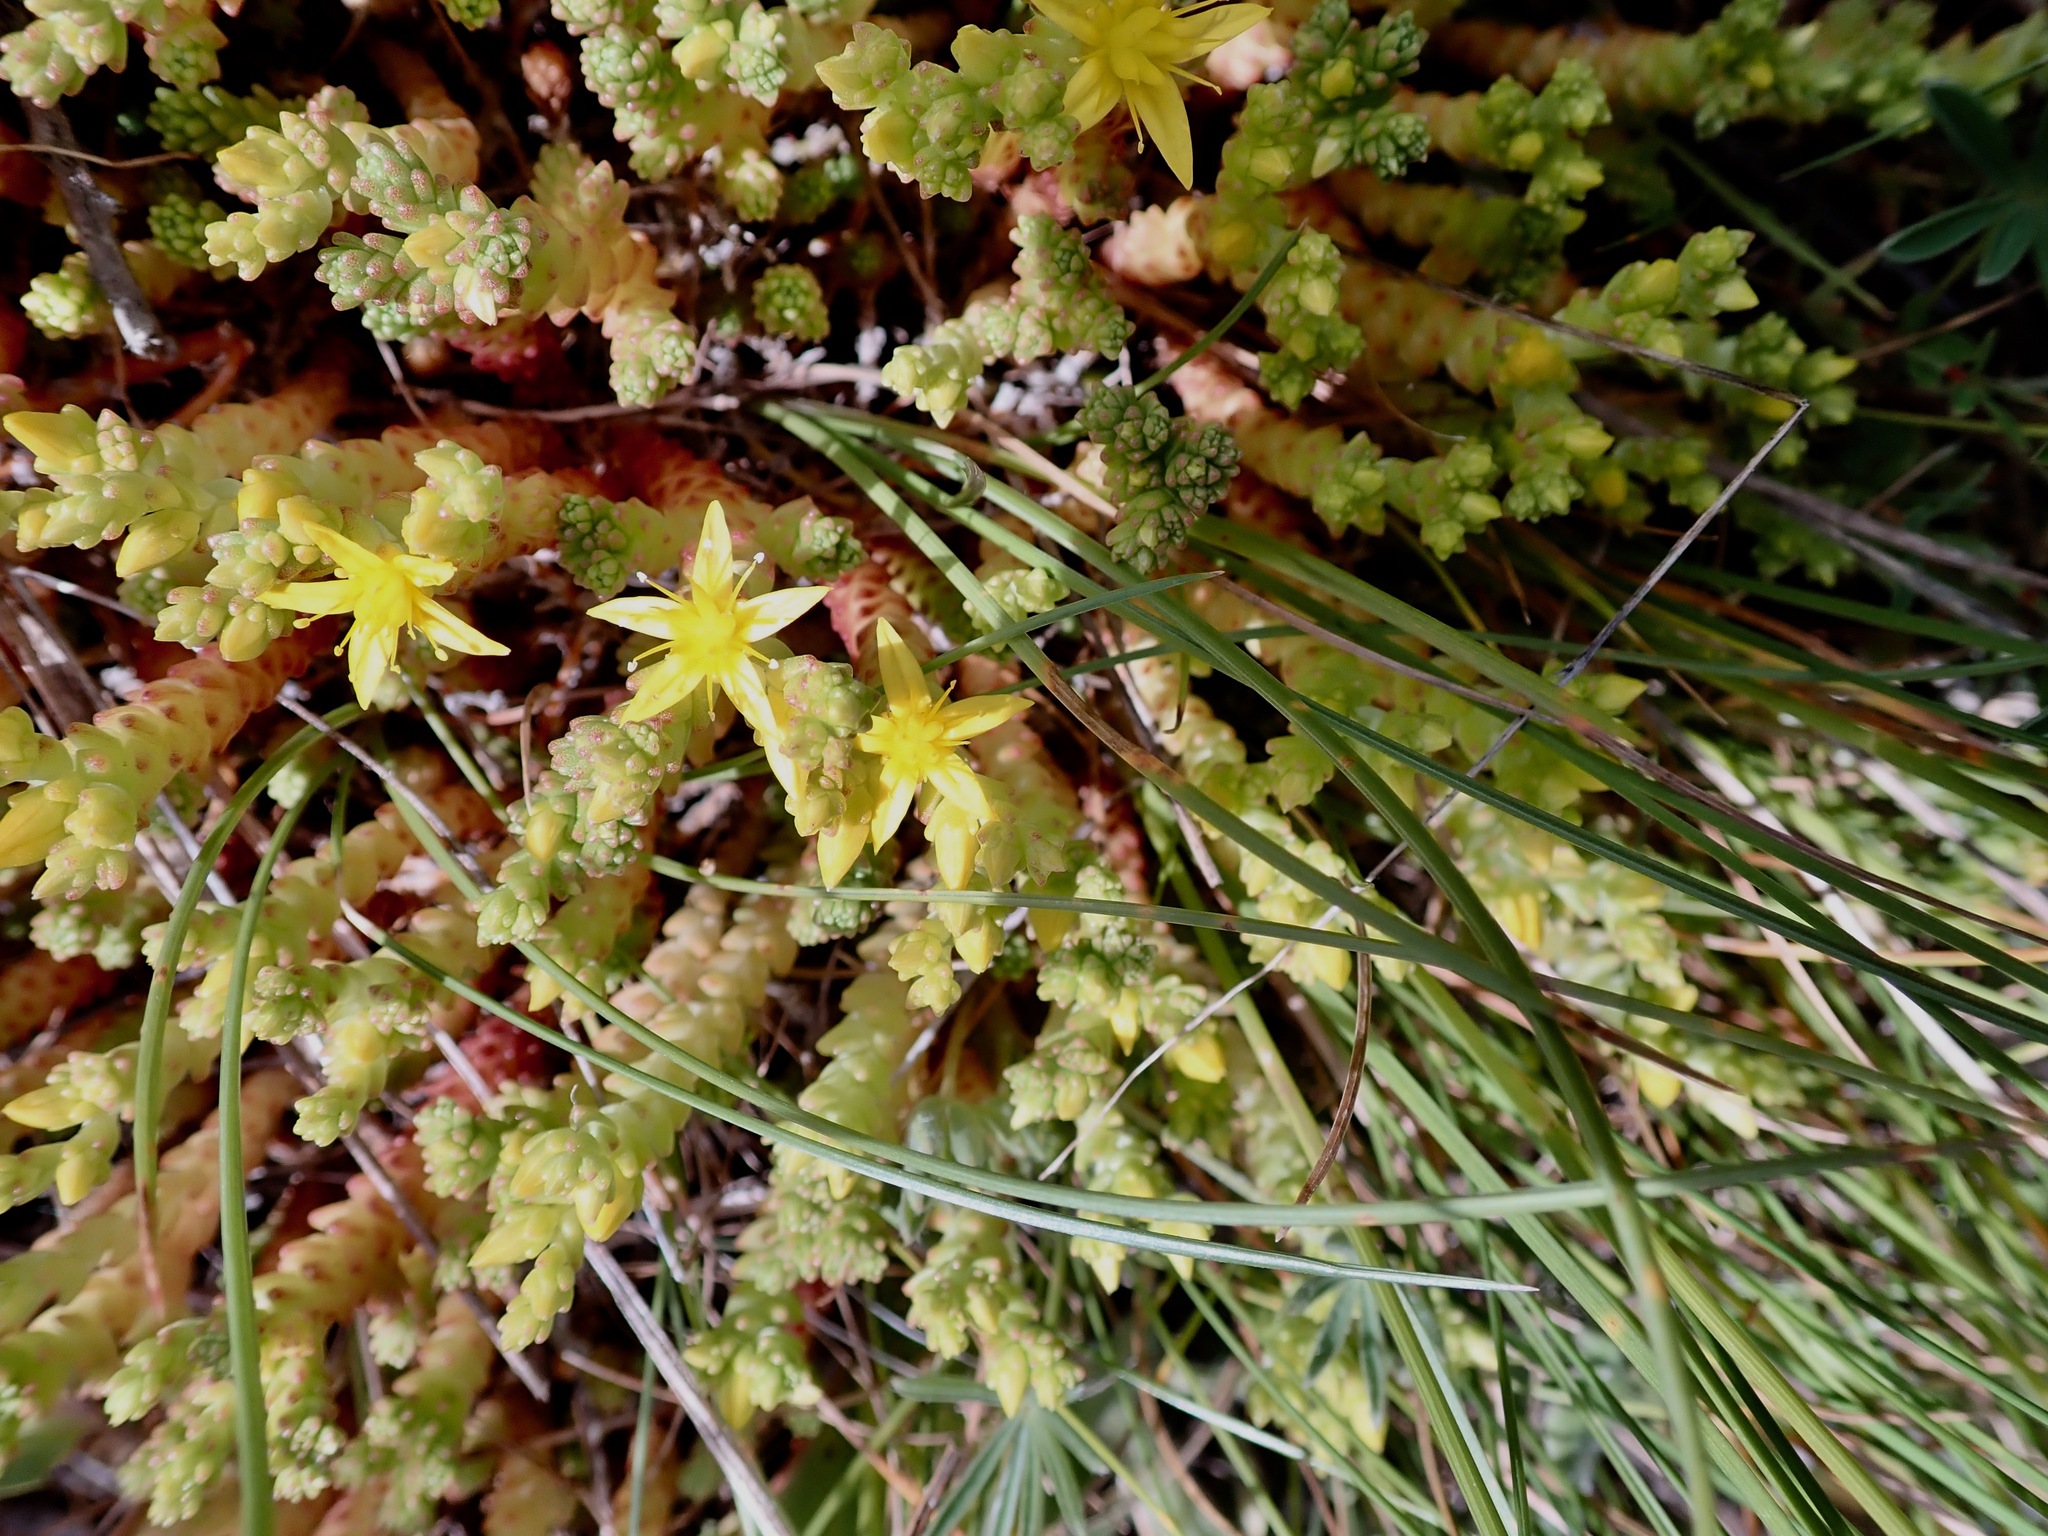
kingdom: Plantae
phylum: Tracheophyta
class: Magnoliopsida
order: Saxifragales
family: Crassulaceae
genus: Sedum
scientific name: Sedum acre
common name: Biting stonecrop
